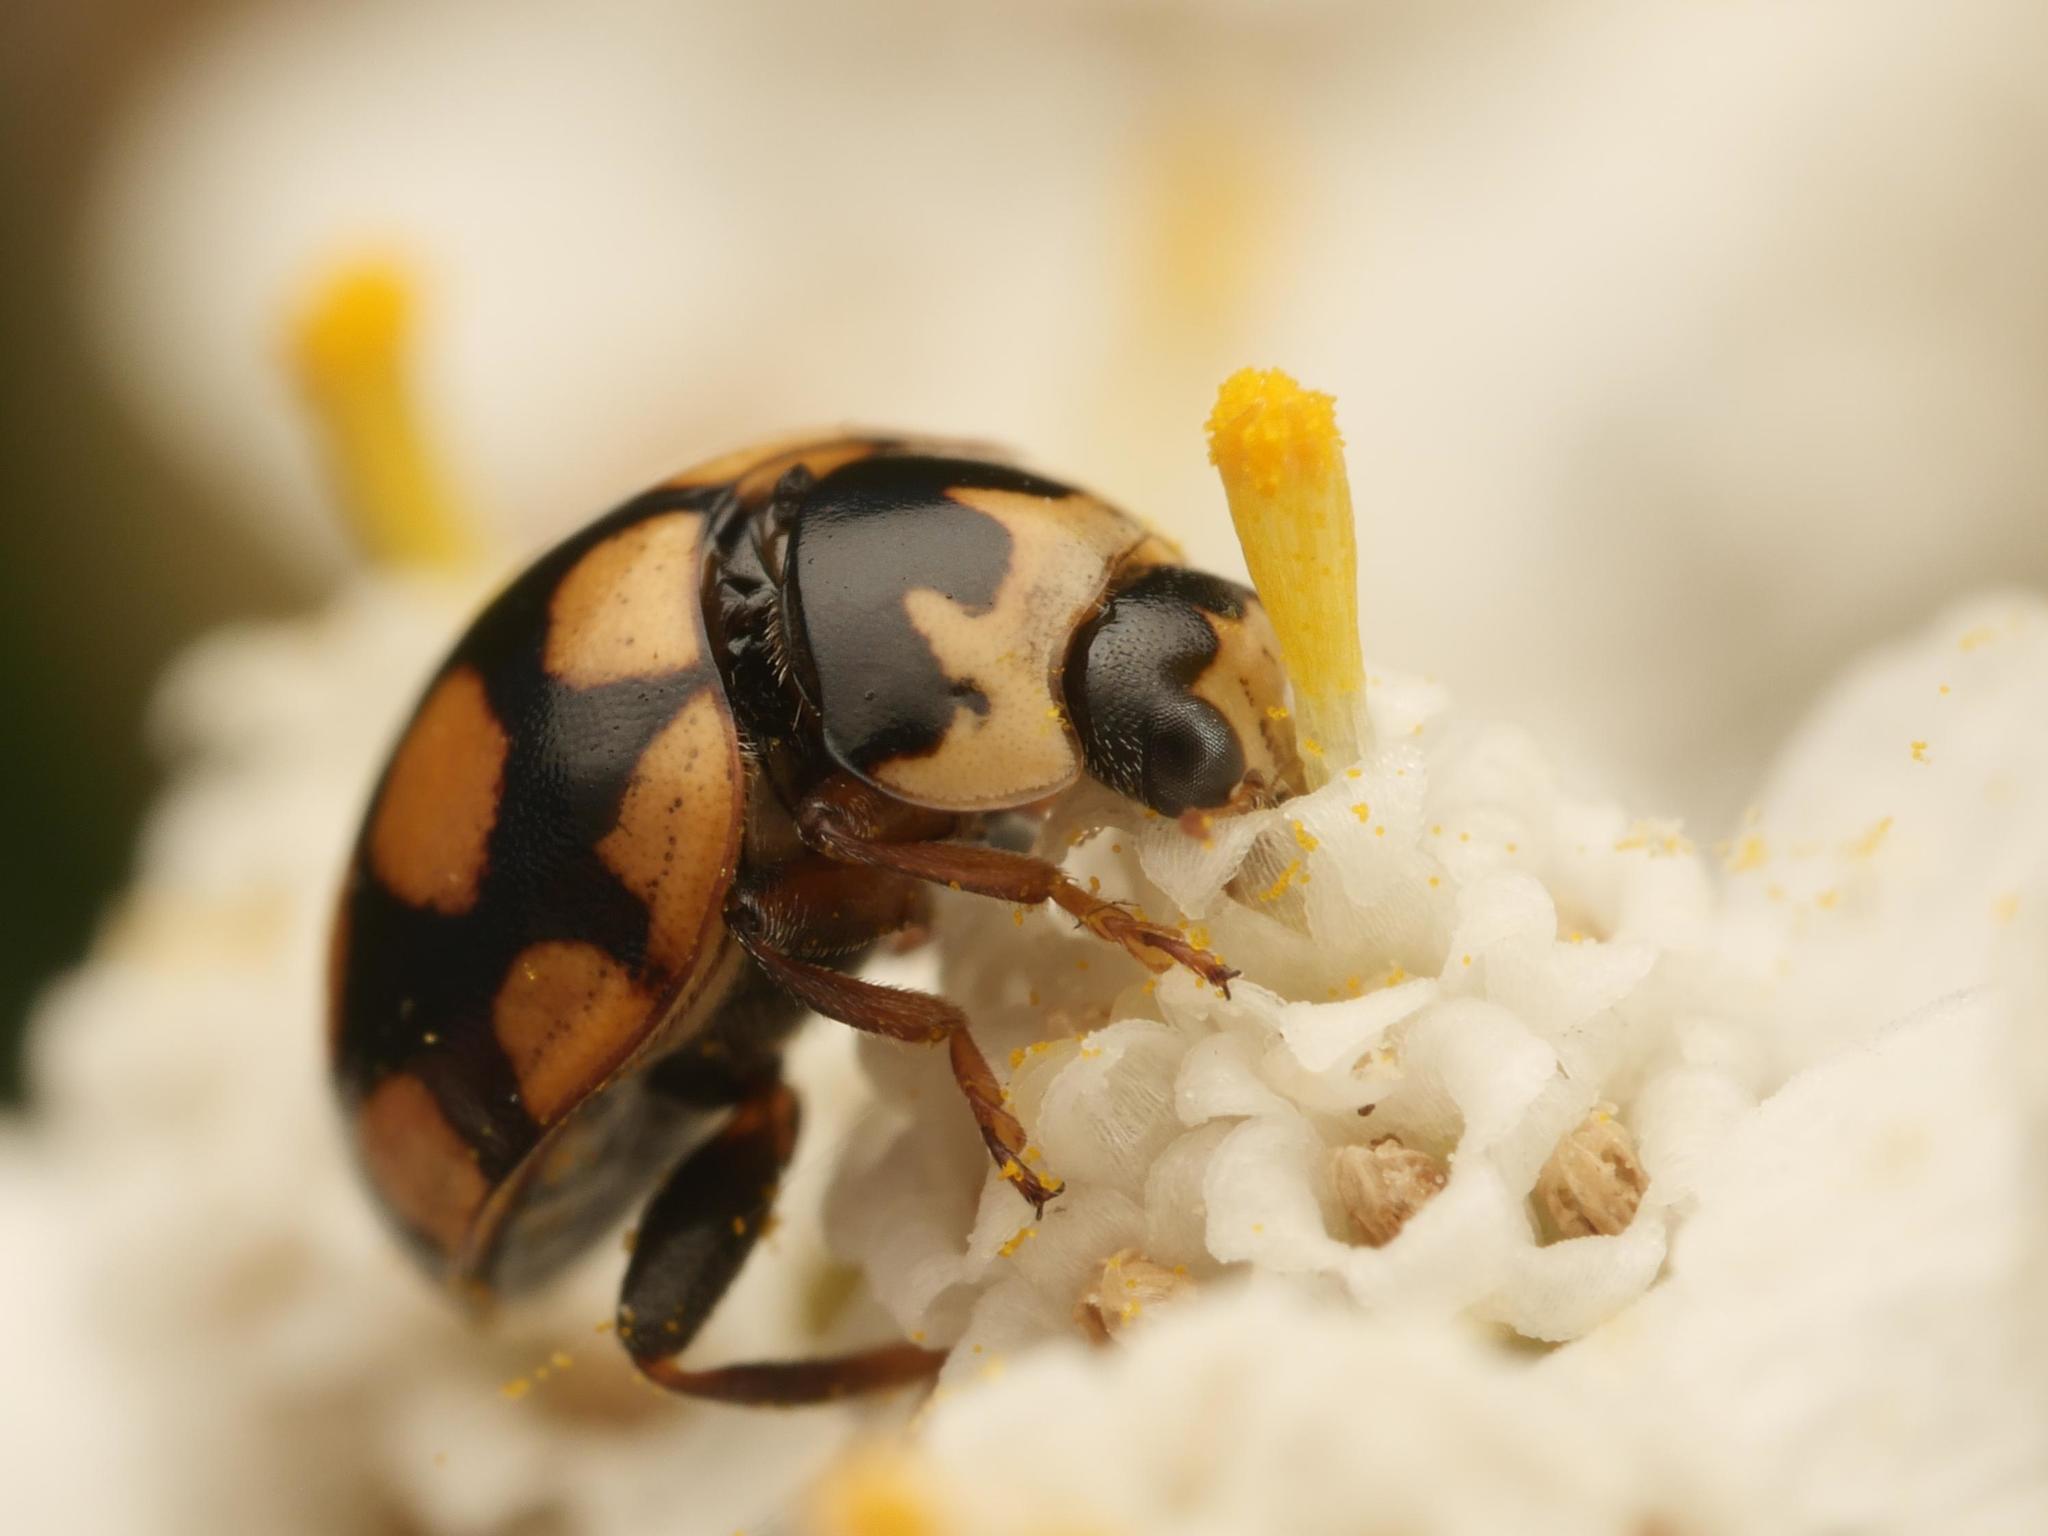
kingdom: Animalia
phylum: Arthropoda
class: Insecta
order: Coleoptera
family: Coccinellidae
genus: Coccinula
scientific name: Coccinula quatuordecimpustulata
